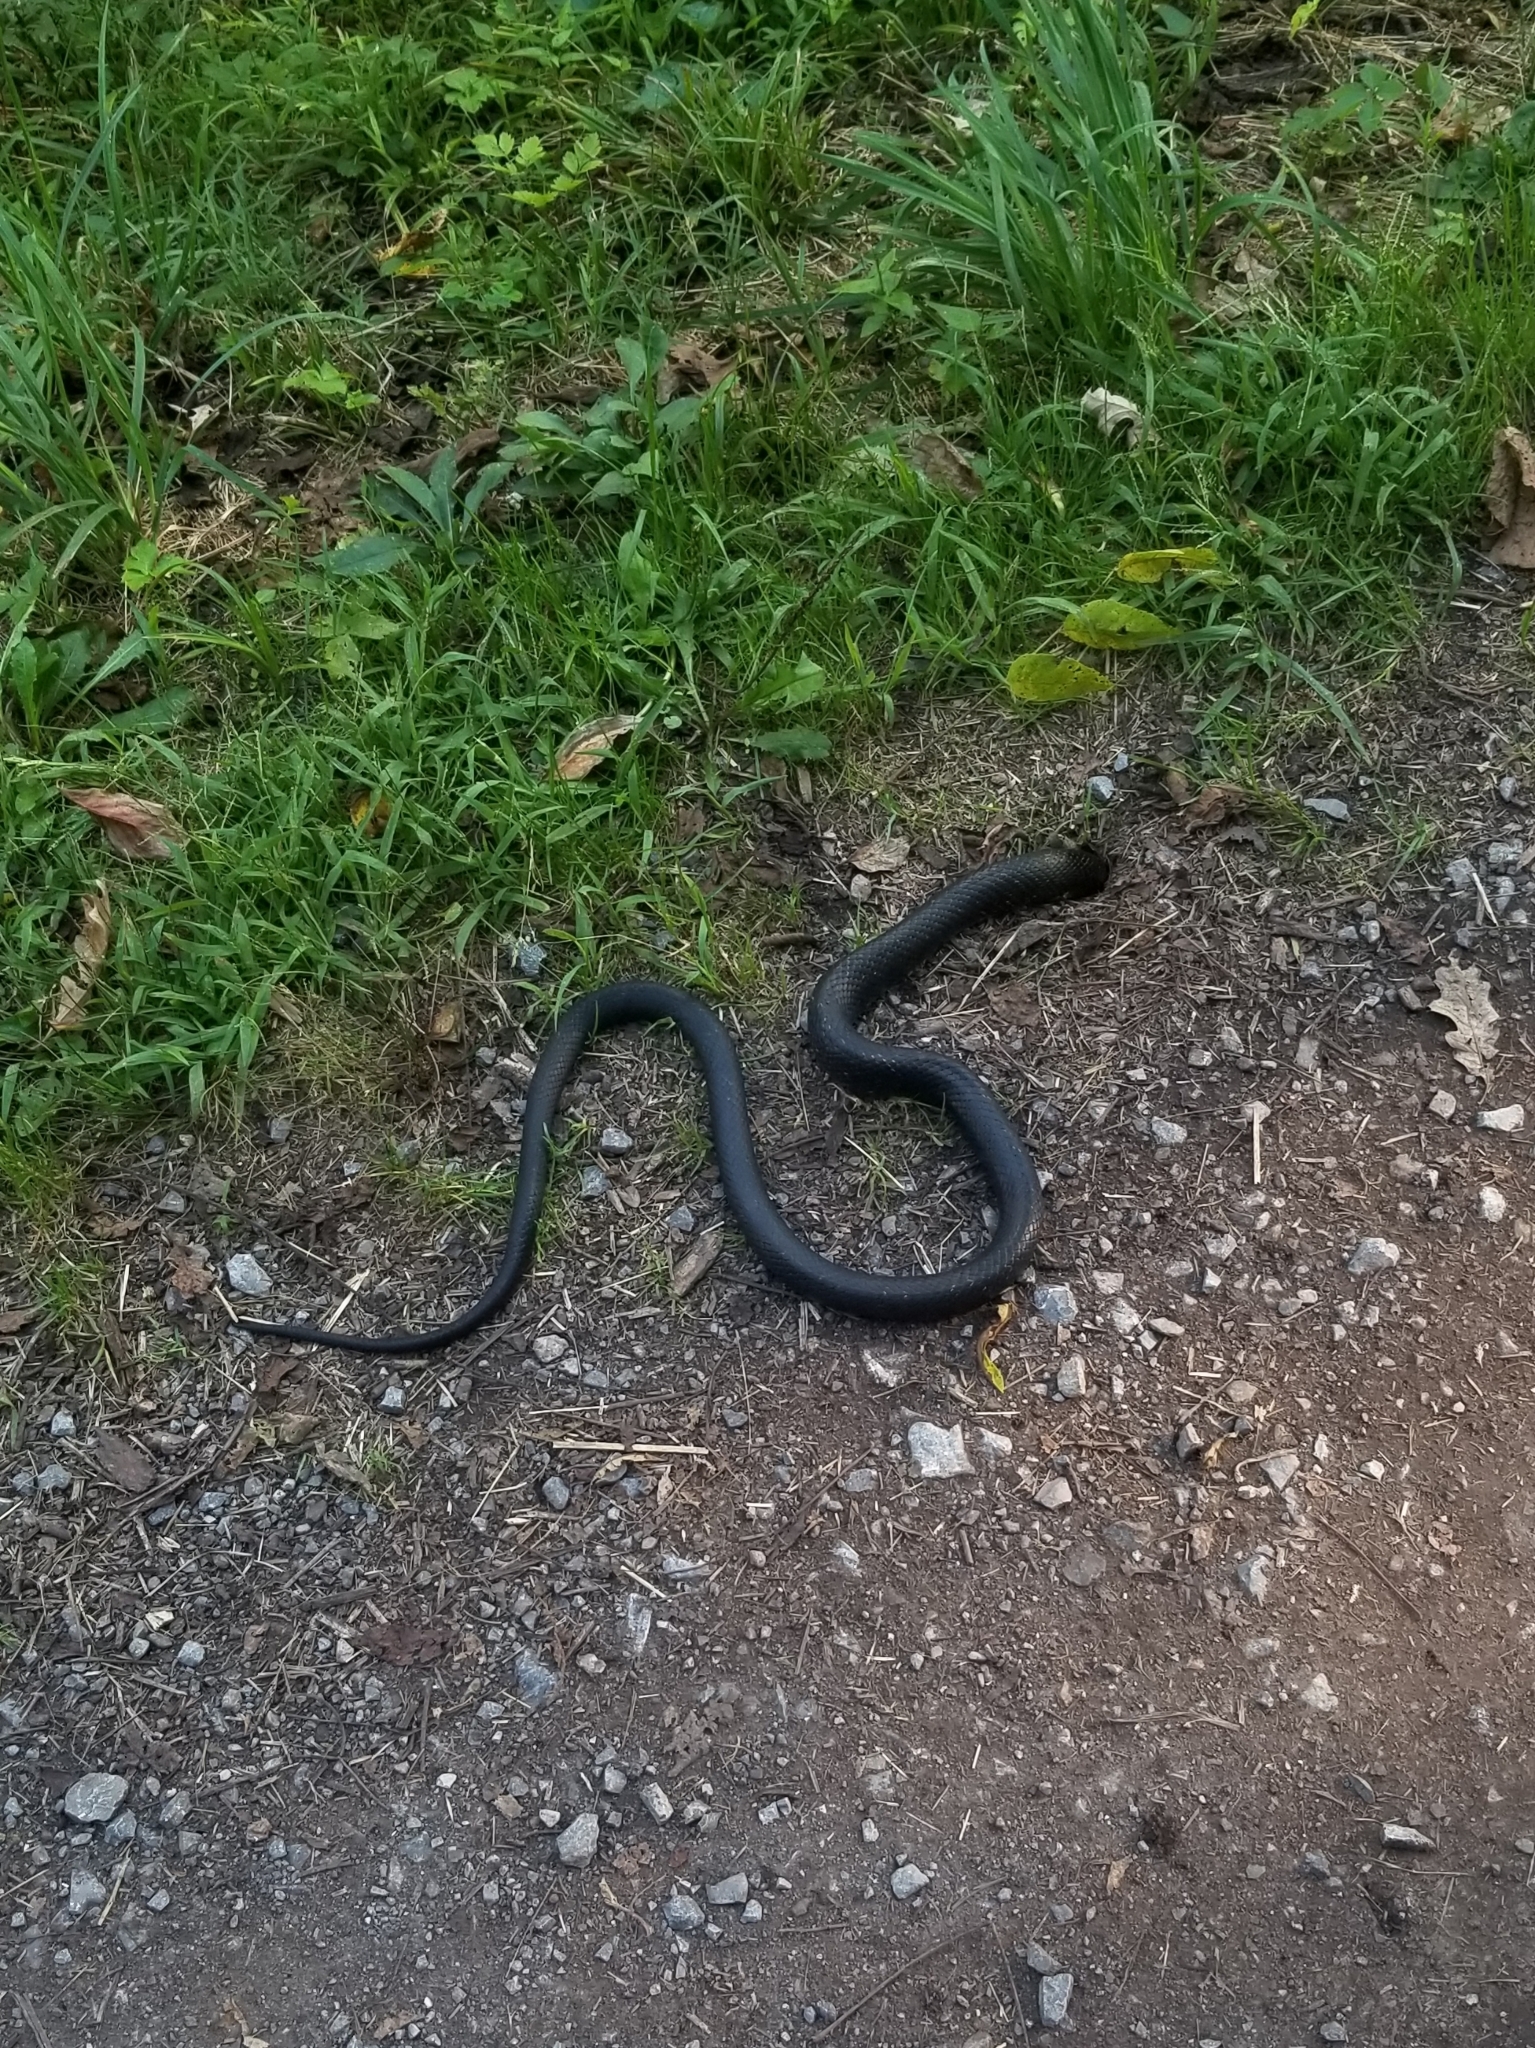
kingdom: Animalia
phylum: Chordata
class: Squamata
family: Colubridae
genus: Pantherophis
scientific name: Pantherophis alleghaniensis
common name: Eastern rat snake
